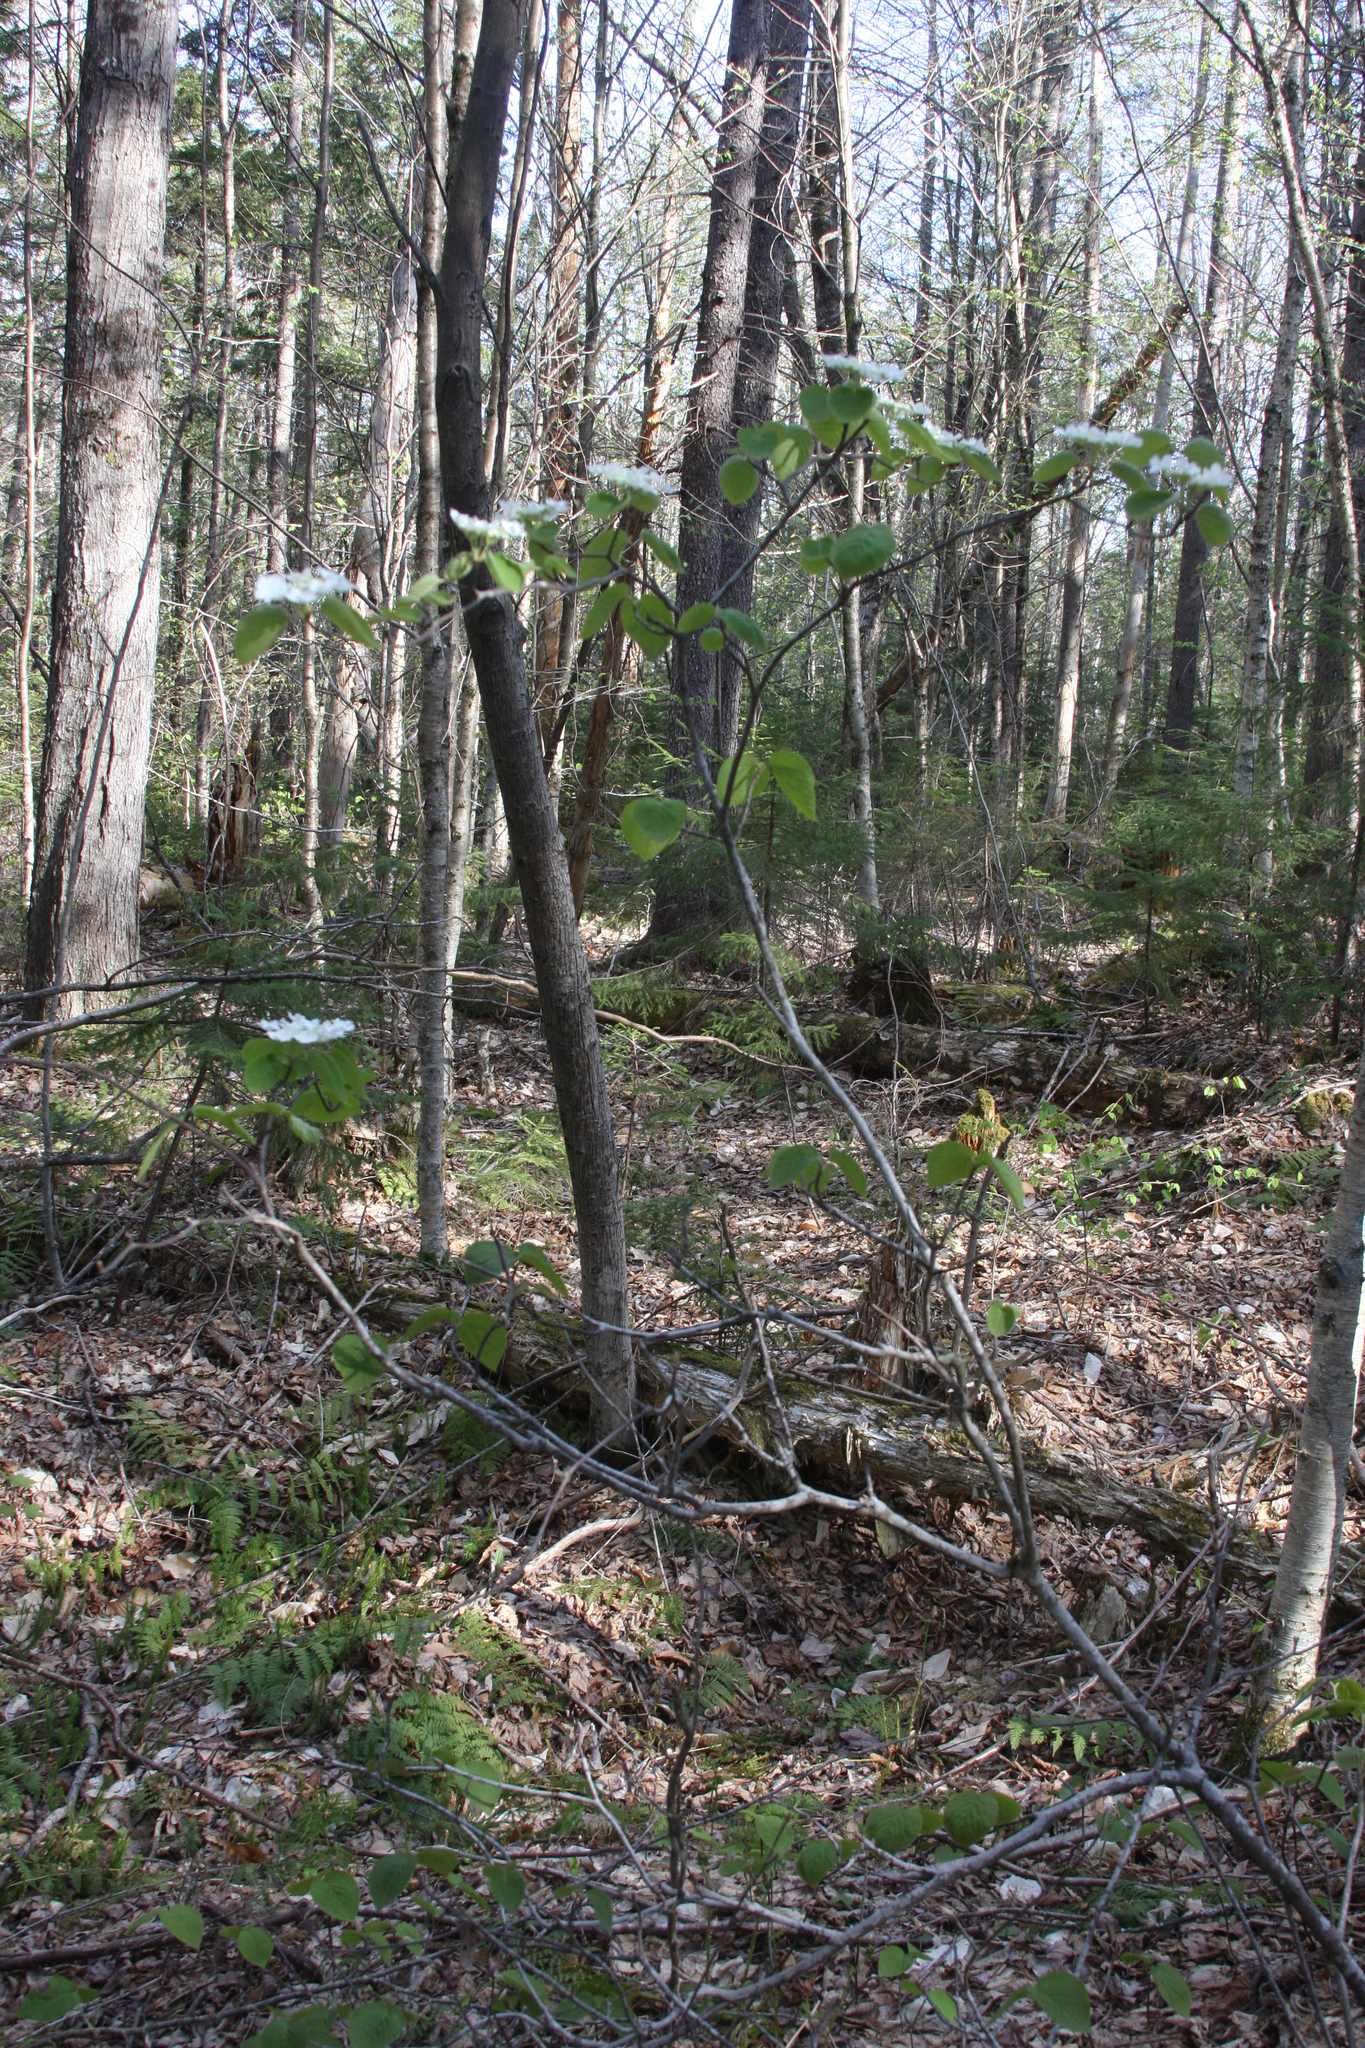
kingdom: Plantae
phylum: Tracheophyta
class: Magnoliopsida
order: Dipsacales
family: Viburnaceae
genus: Viburnum
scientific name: Viburnum lantanoides
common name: Hobblebush
